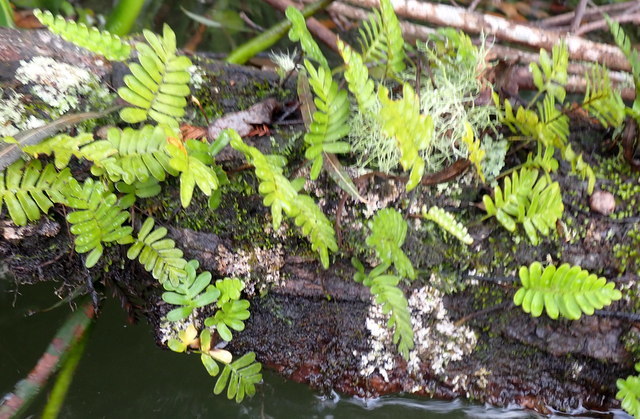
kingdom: Plantae
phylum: Tracheophyta
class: Polypodiopsida
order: Polypodiales
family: Polypodiaceae
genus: Pleopeltis
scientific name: Pleopeltis michauxiana
